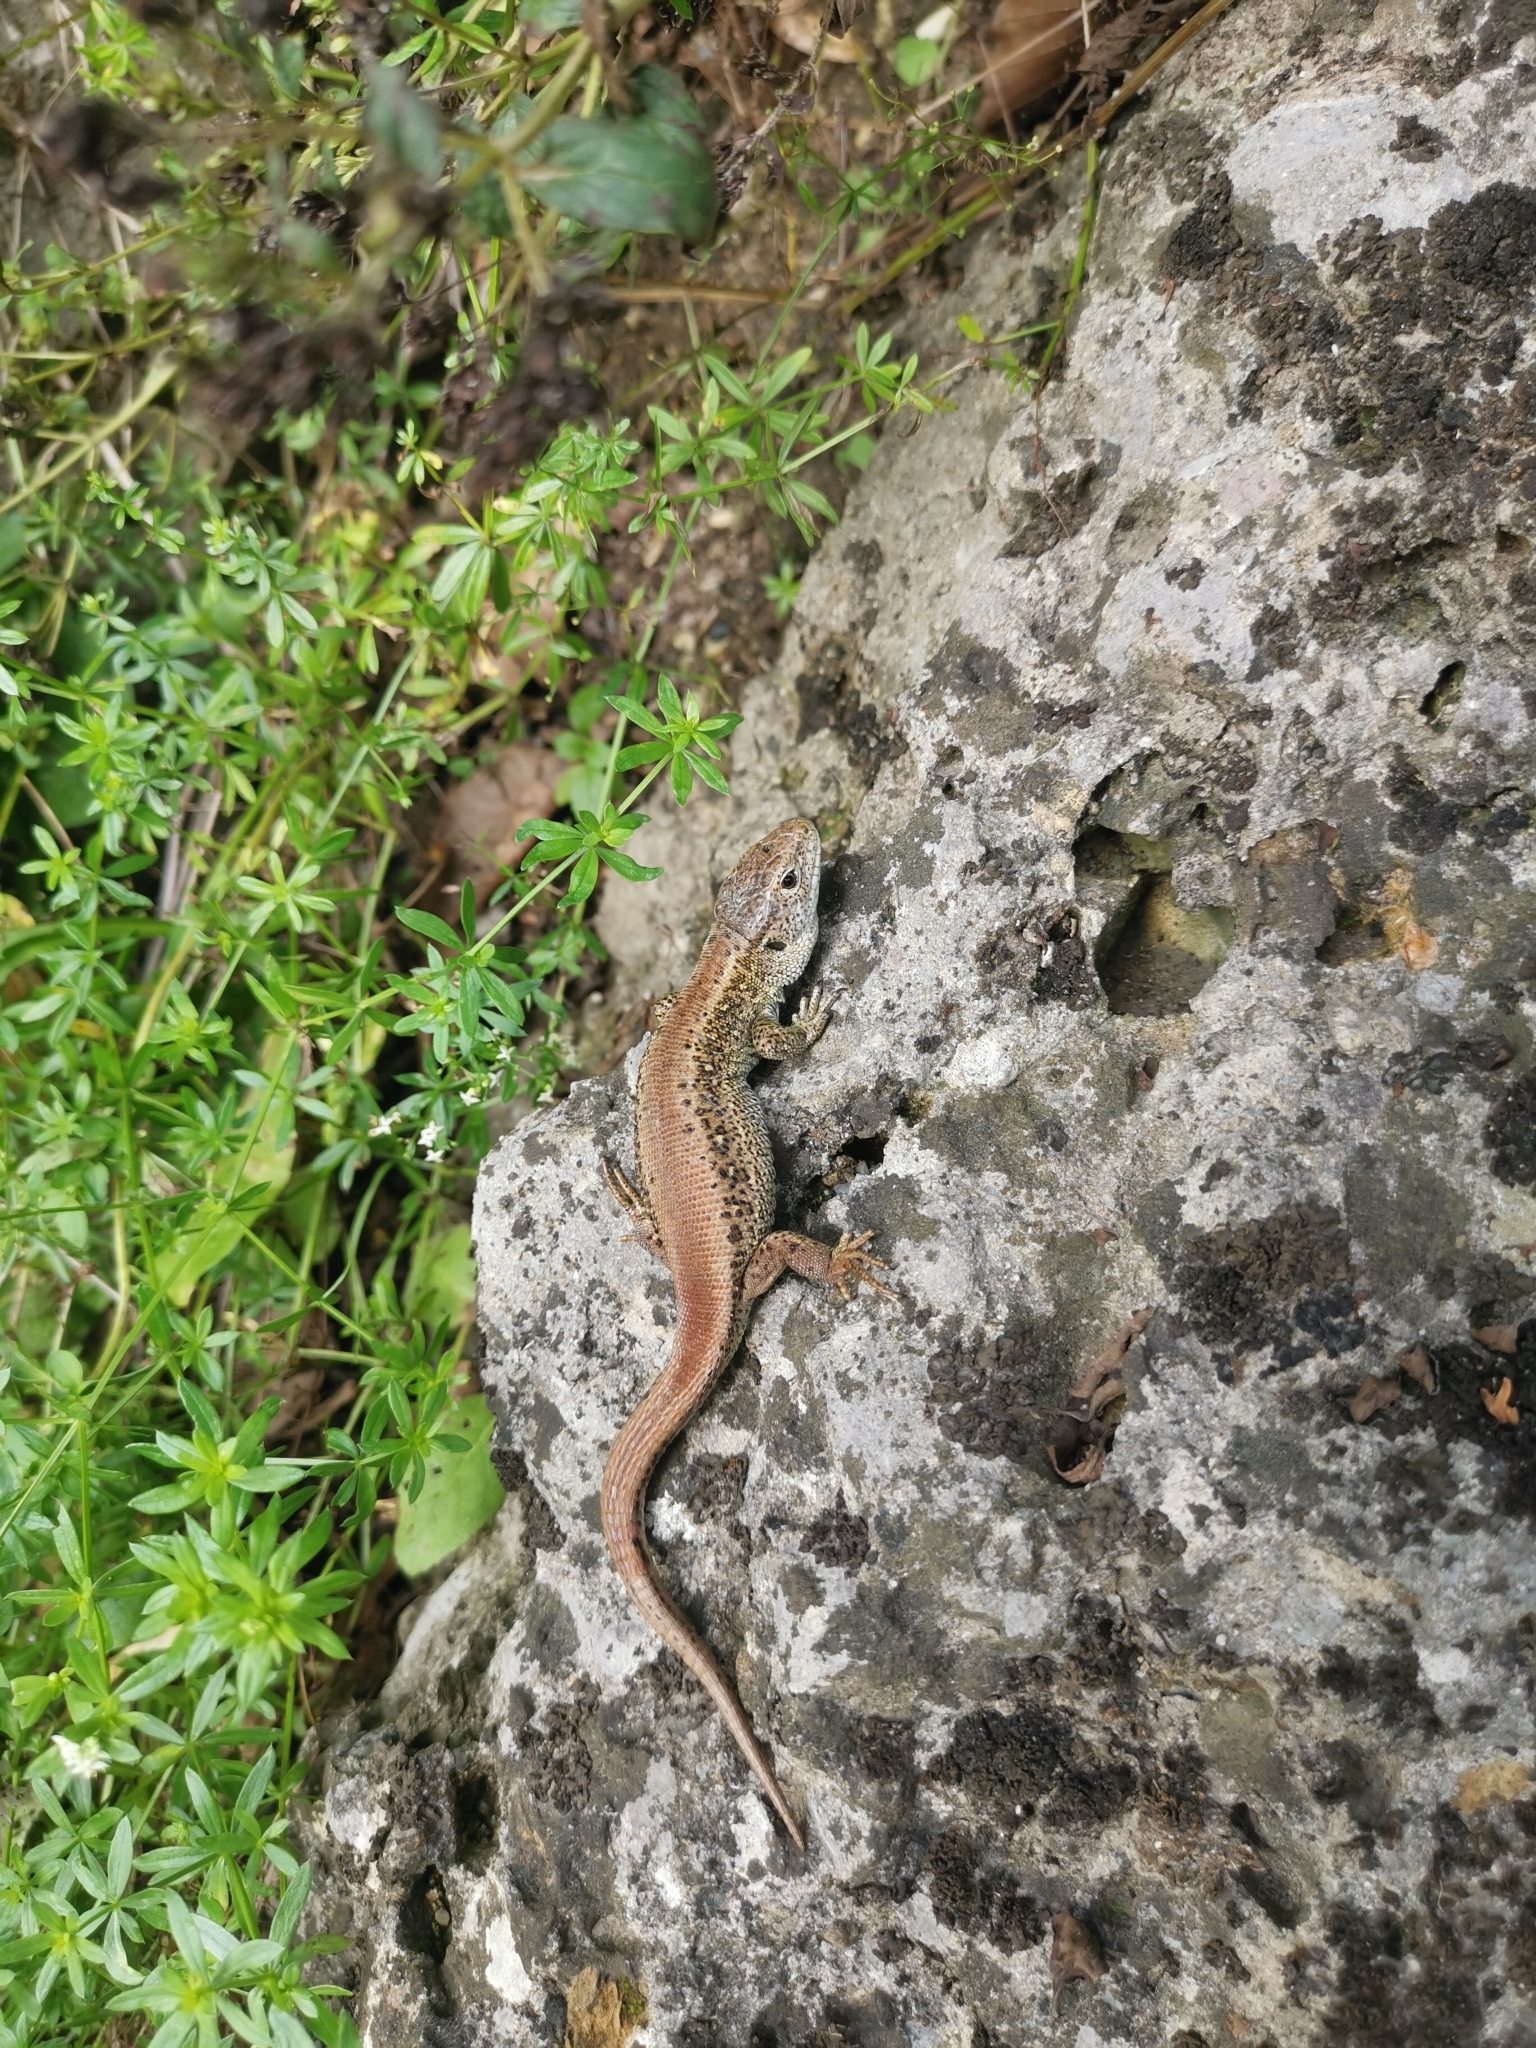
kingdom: Animalia
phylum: Chordata
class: Squamata
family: Lacertidae
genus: Lacerta
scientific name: Lacerta agilis
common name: Sand lizard
